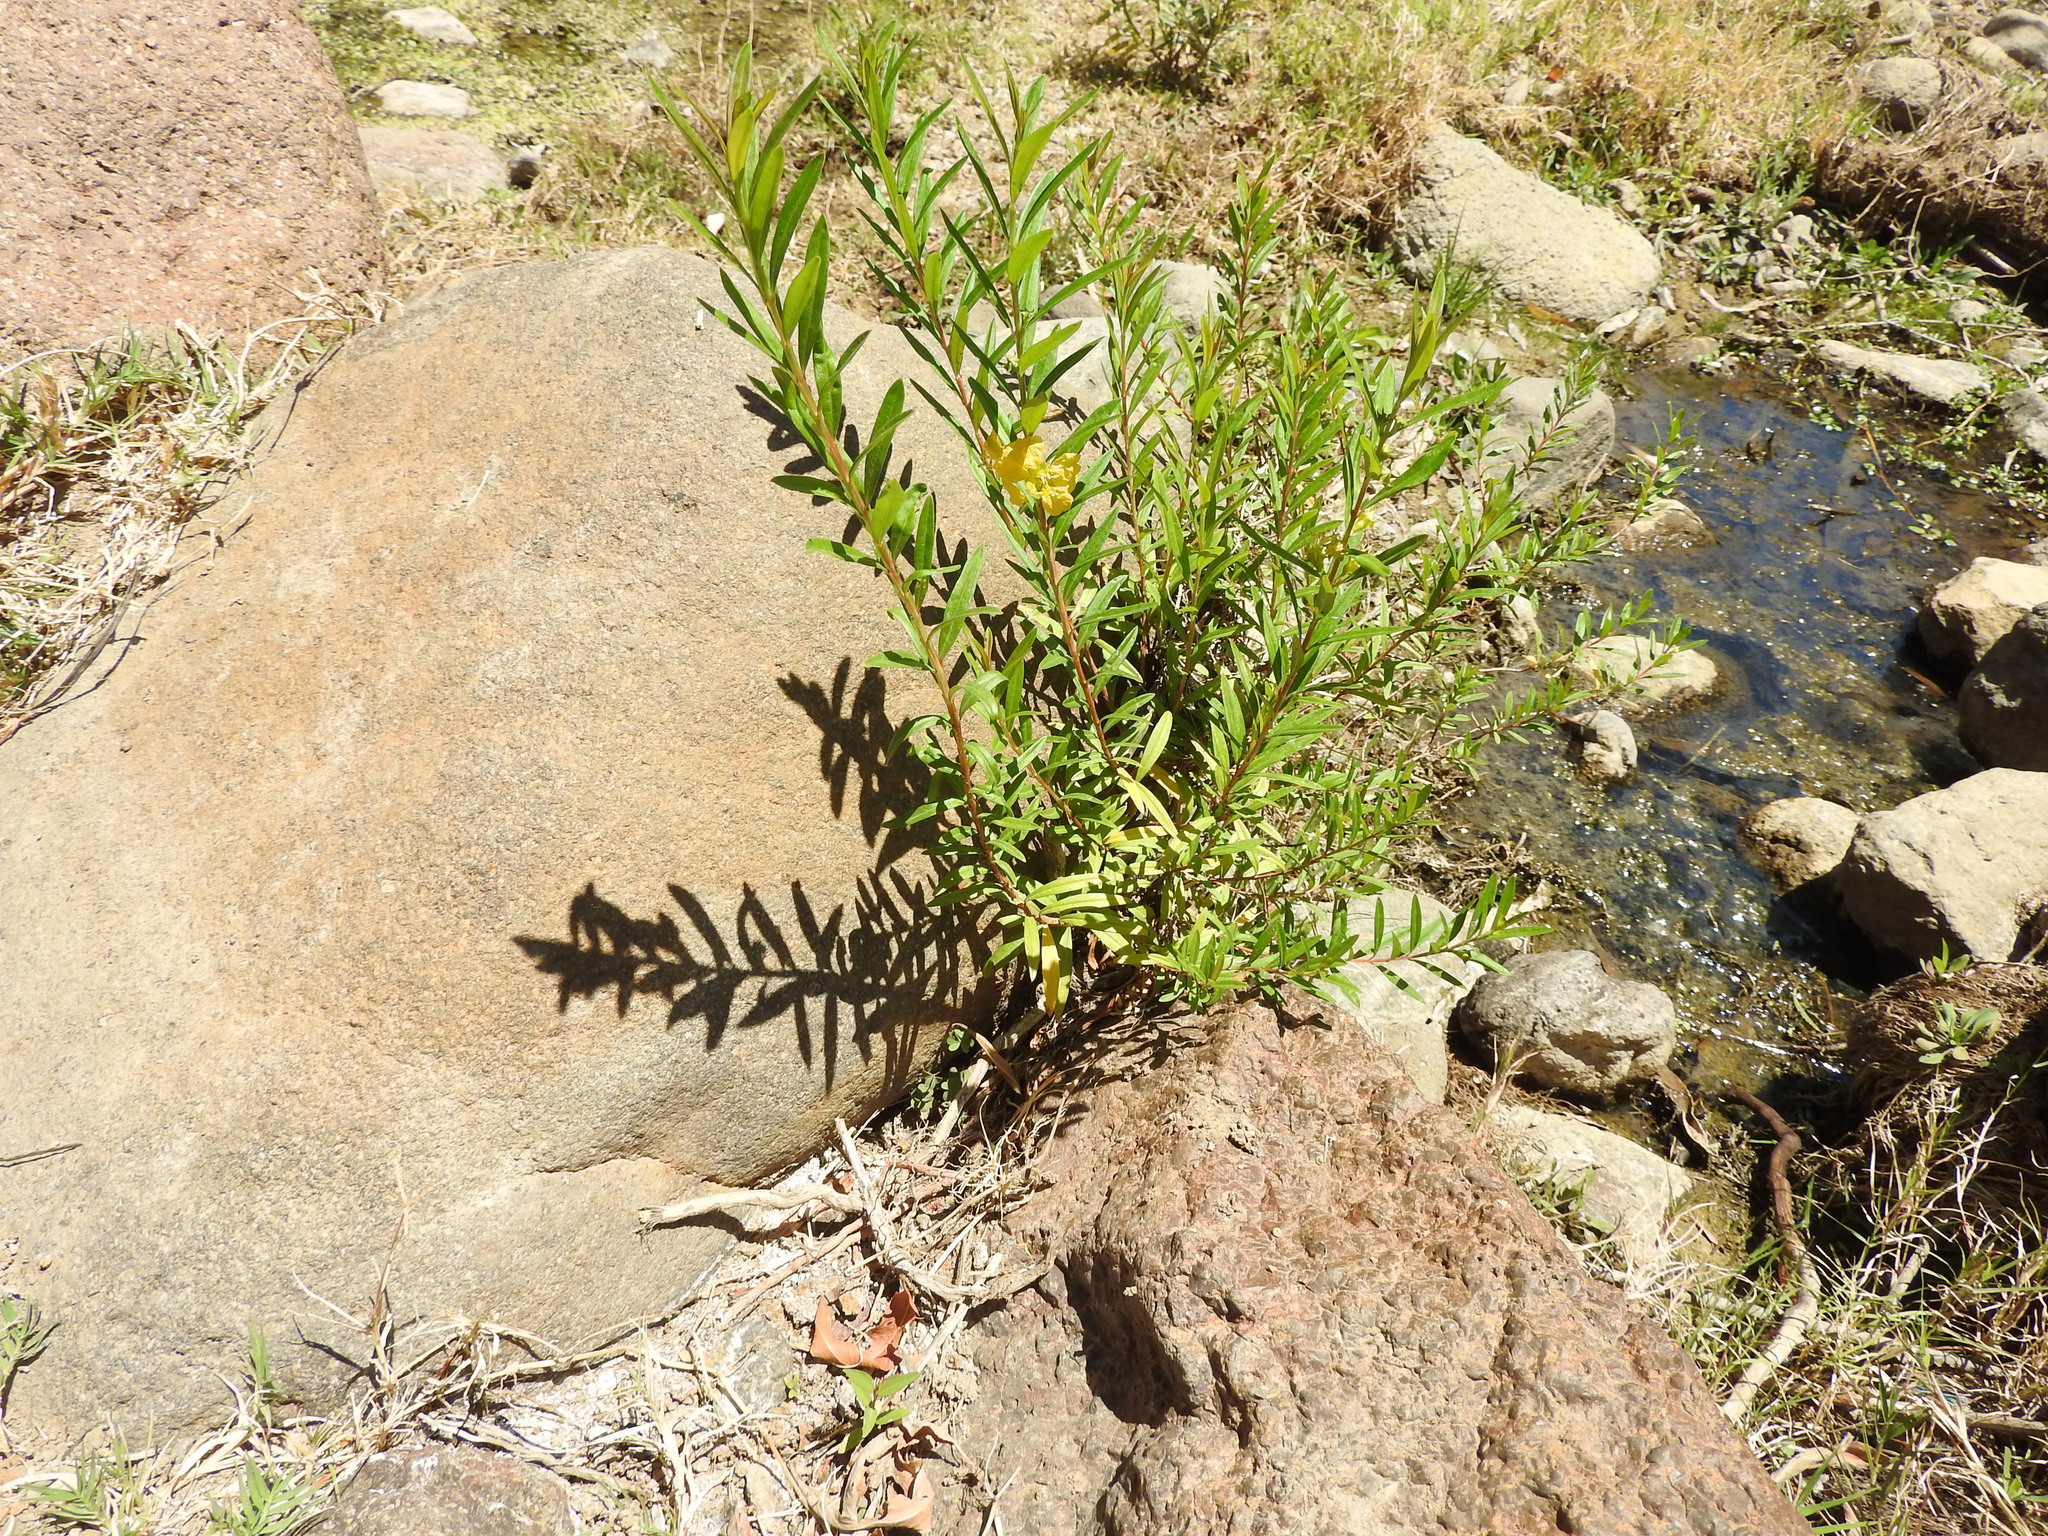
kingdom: Plantae
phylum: Tracheophyta
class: Magnoliopsida
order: Myrtales
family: Lythraceae
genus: Heimia
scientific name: Heimia salicifolia
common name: Willow-leaf heimia
